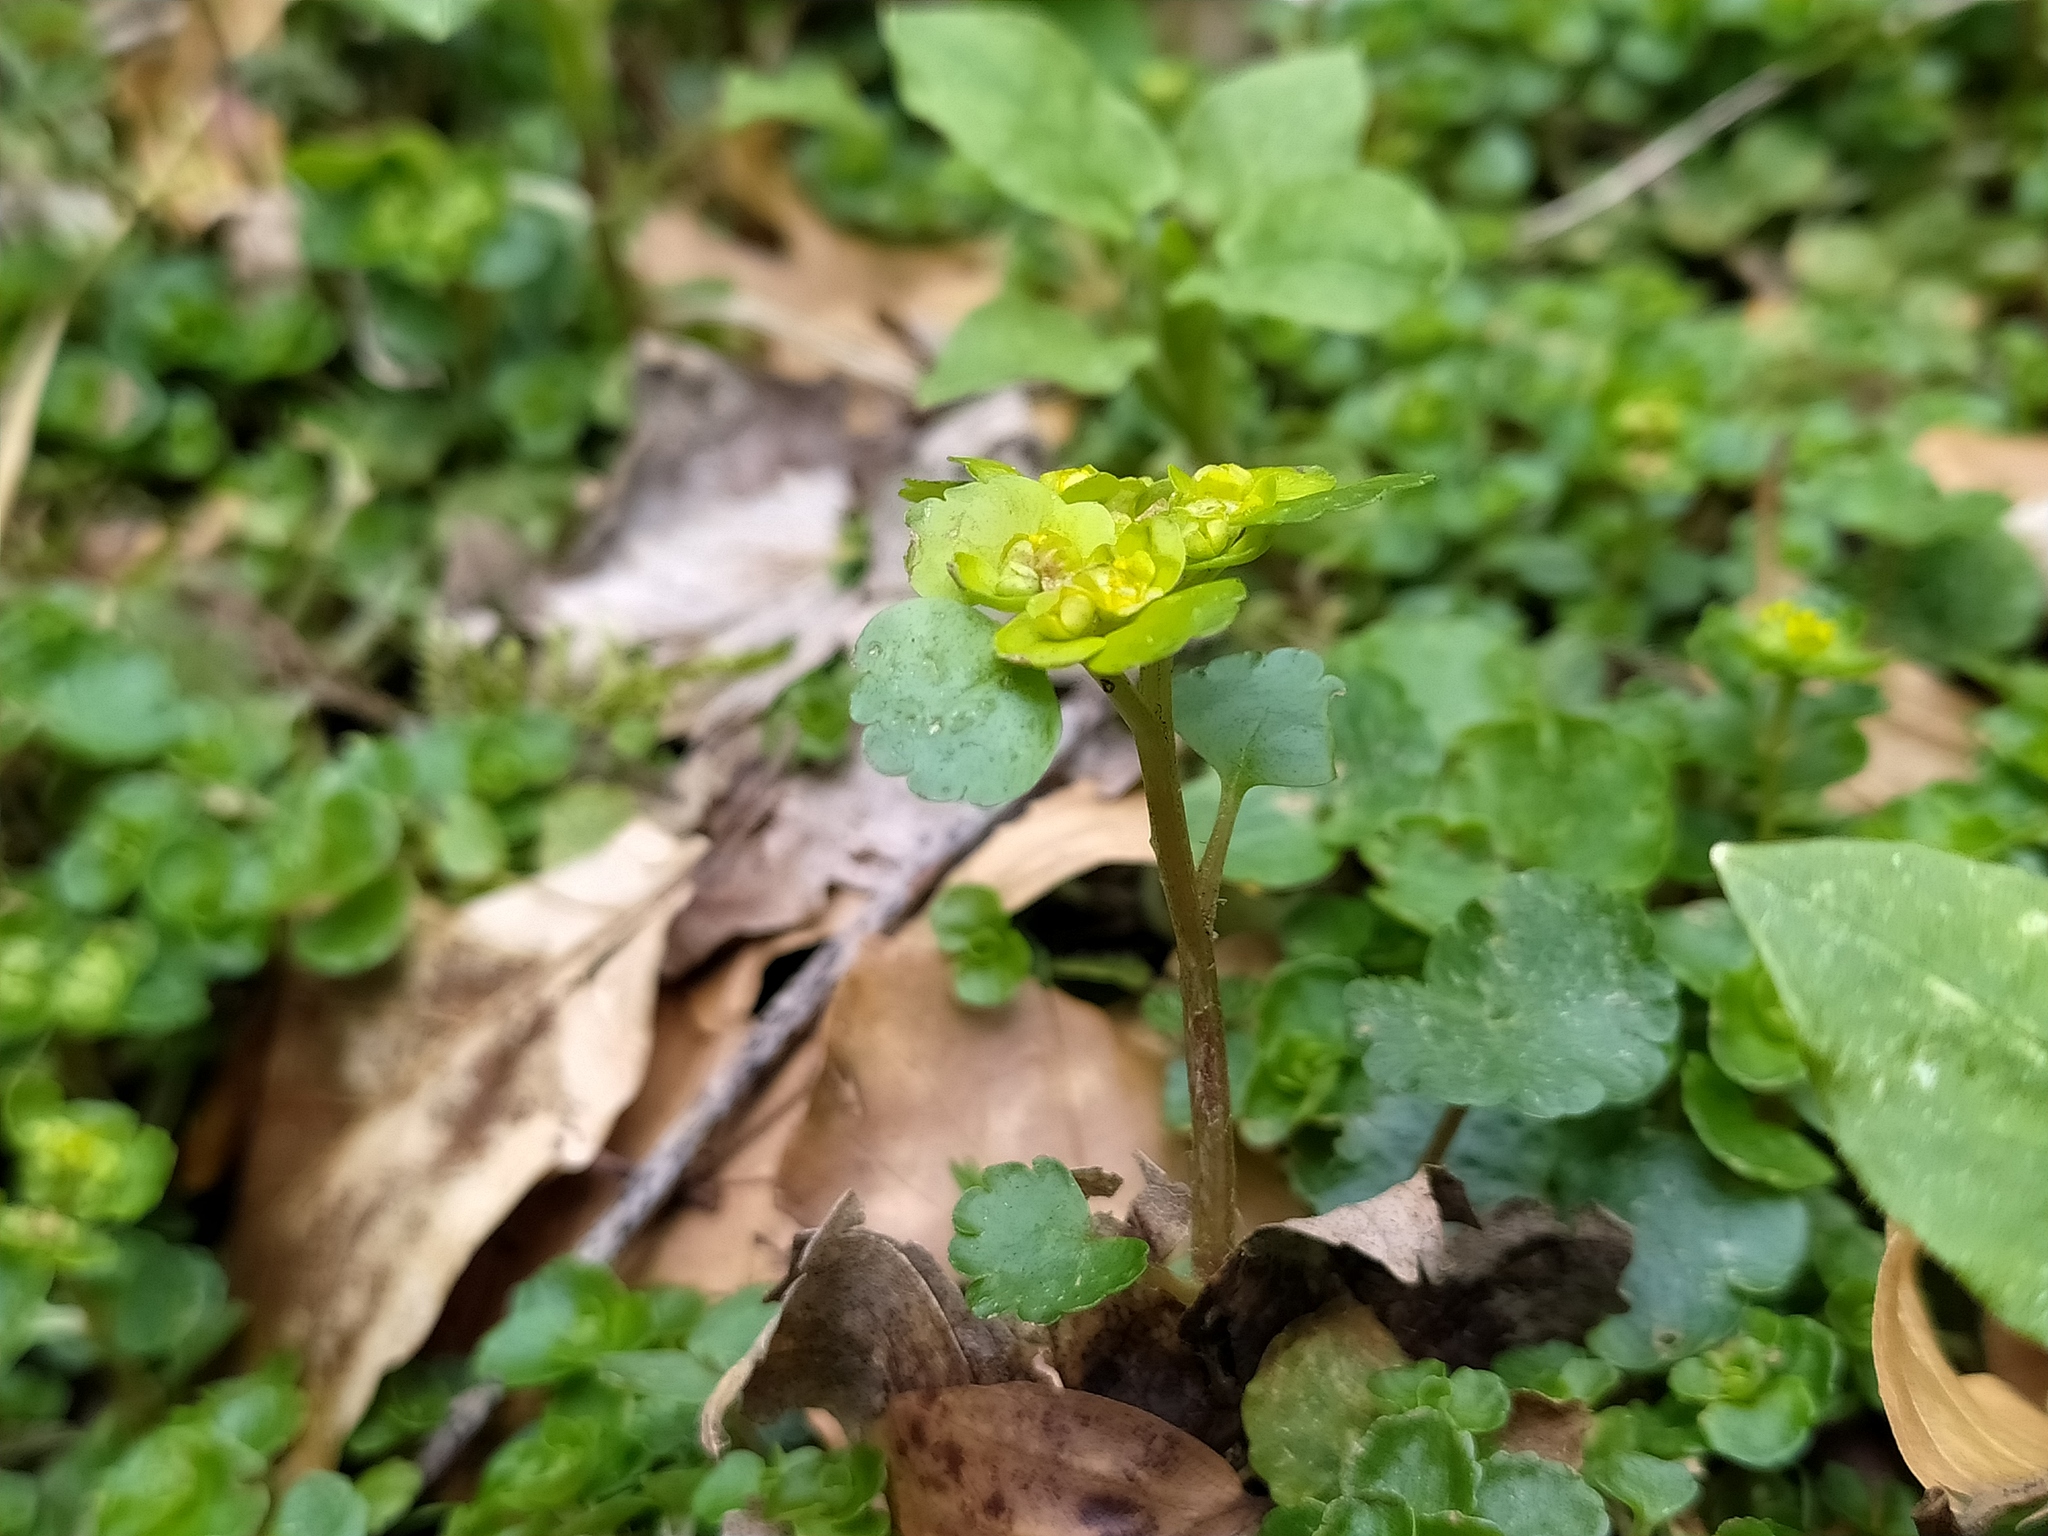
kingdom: Plantae
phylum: Tracheophyta
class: Magnoliopsida
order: Saxifragales
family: Saxifragaceae
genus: Chrysosplenium
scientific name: Chrysosplenium alternifolium
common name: Alternate-leaved golden-saxifrage
